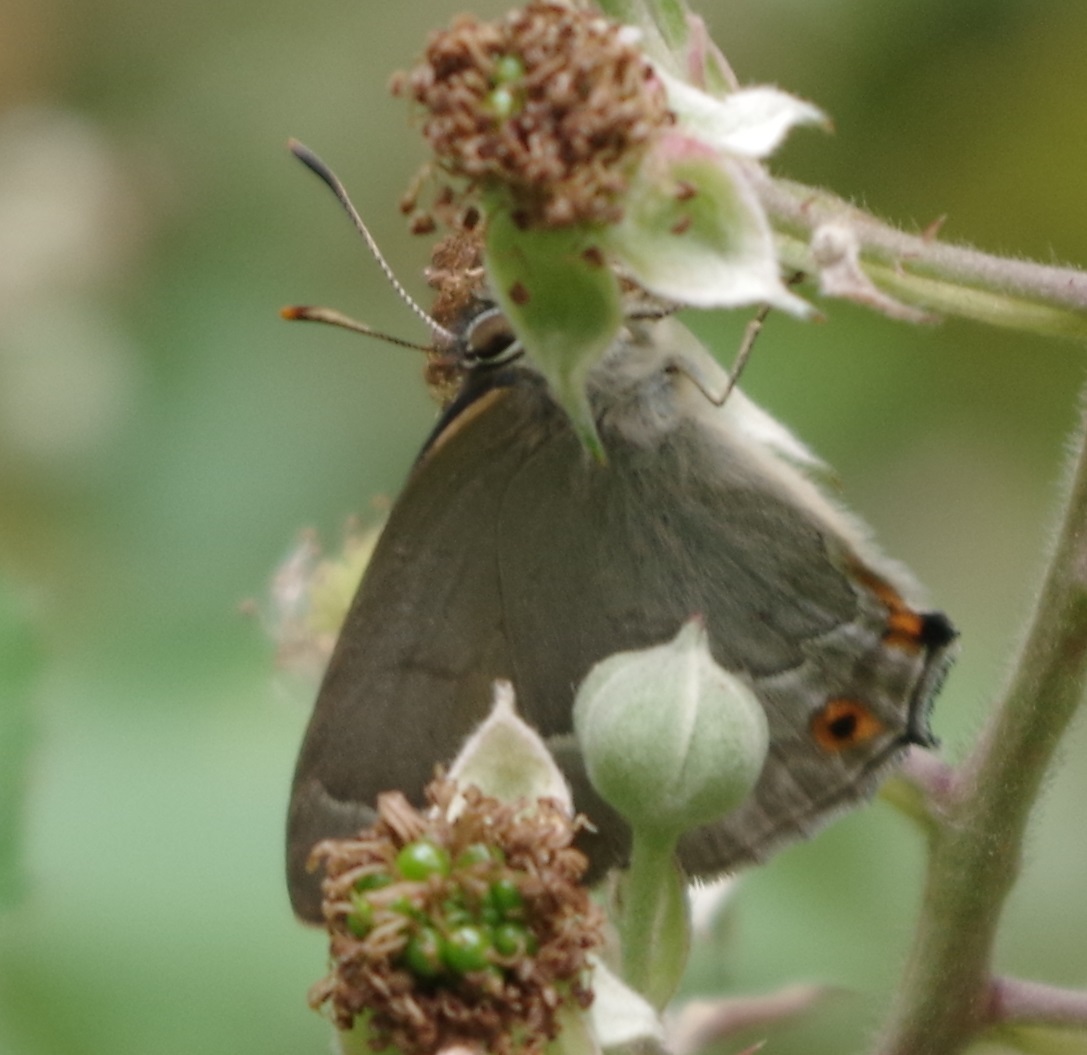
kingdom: Animalia
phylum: Arthropoda
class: Insecta
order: Lepidoptera
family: Lycaenidae
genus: Quercusia
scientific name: Quercusia quercus
